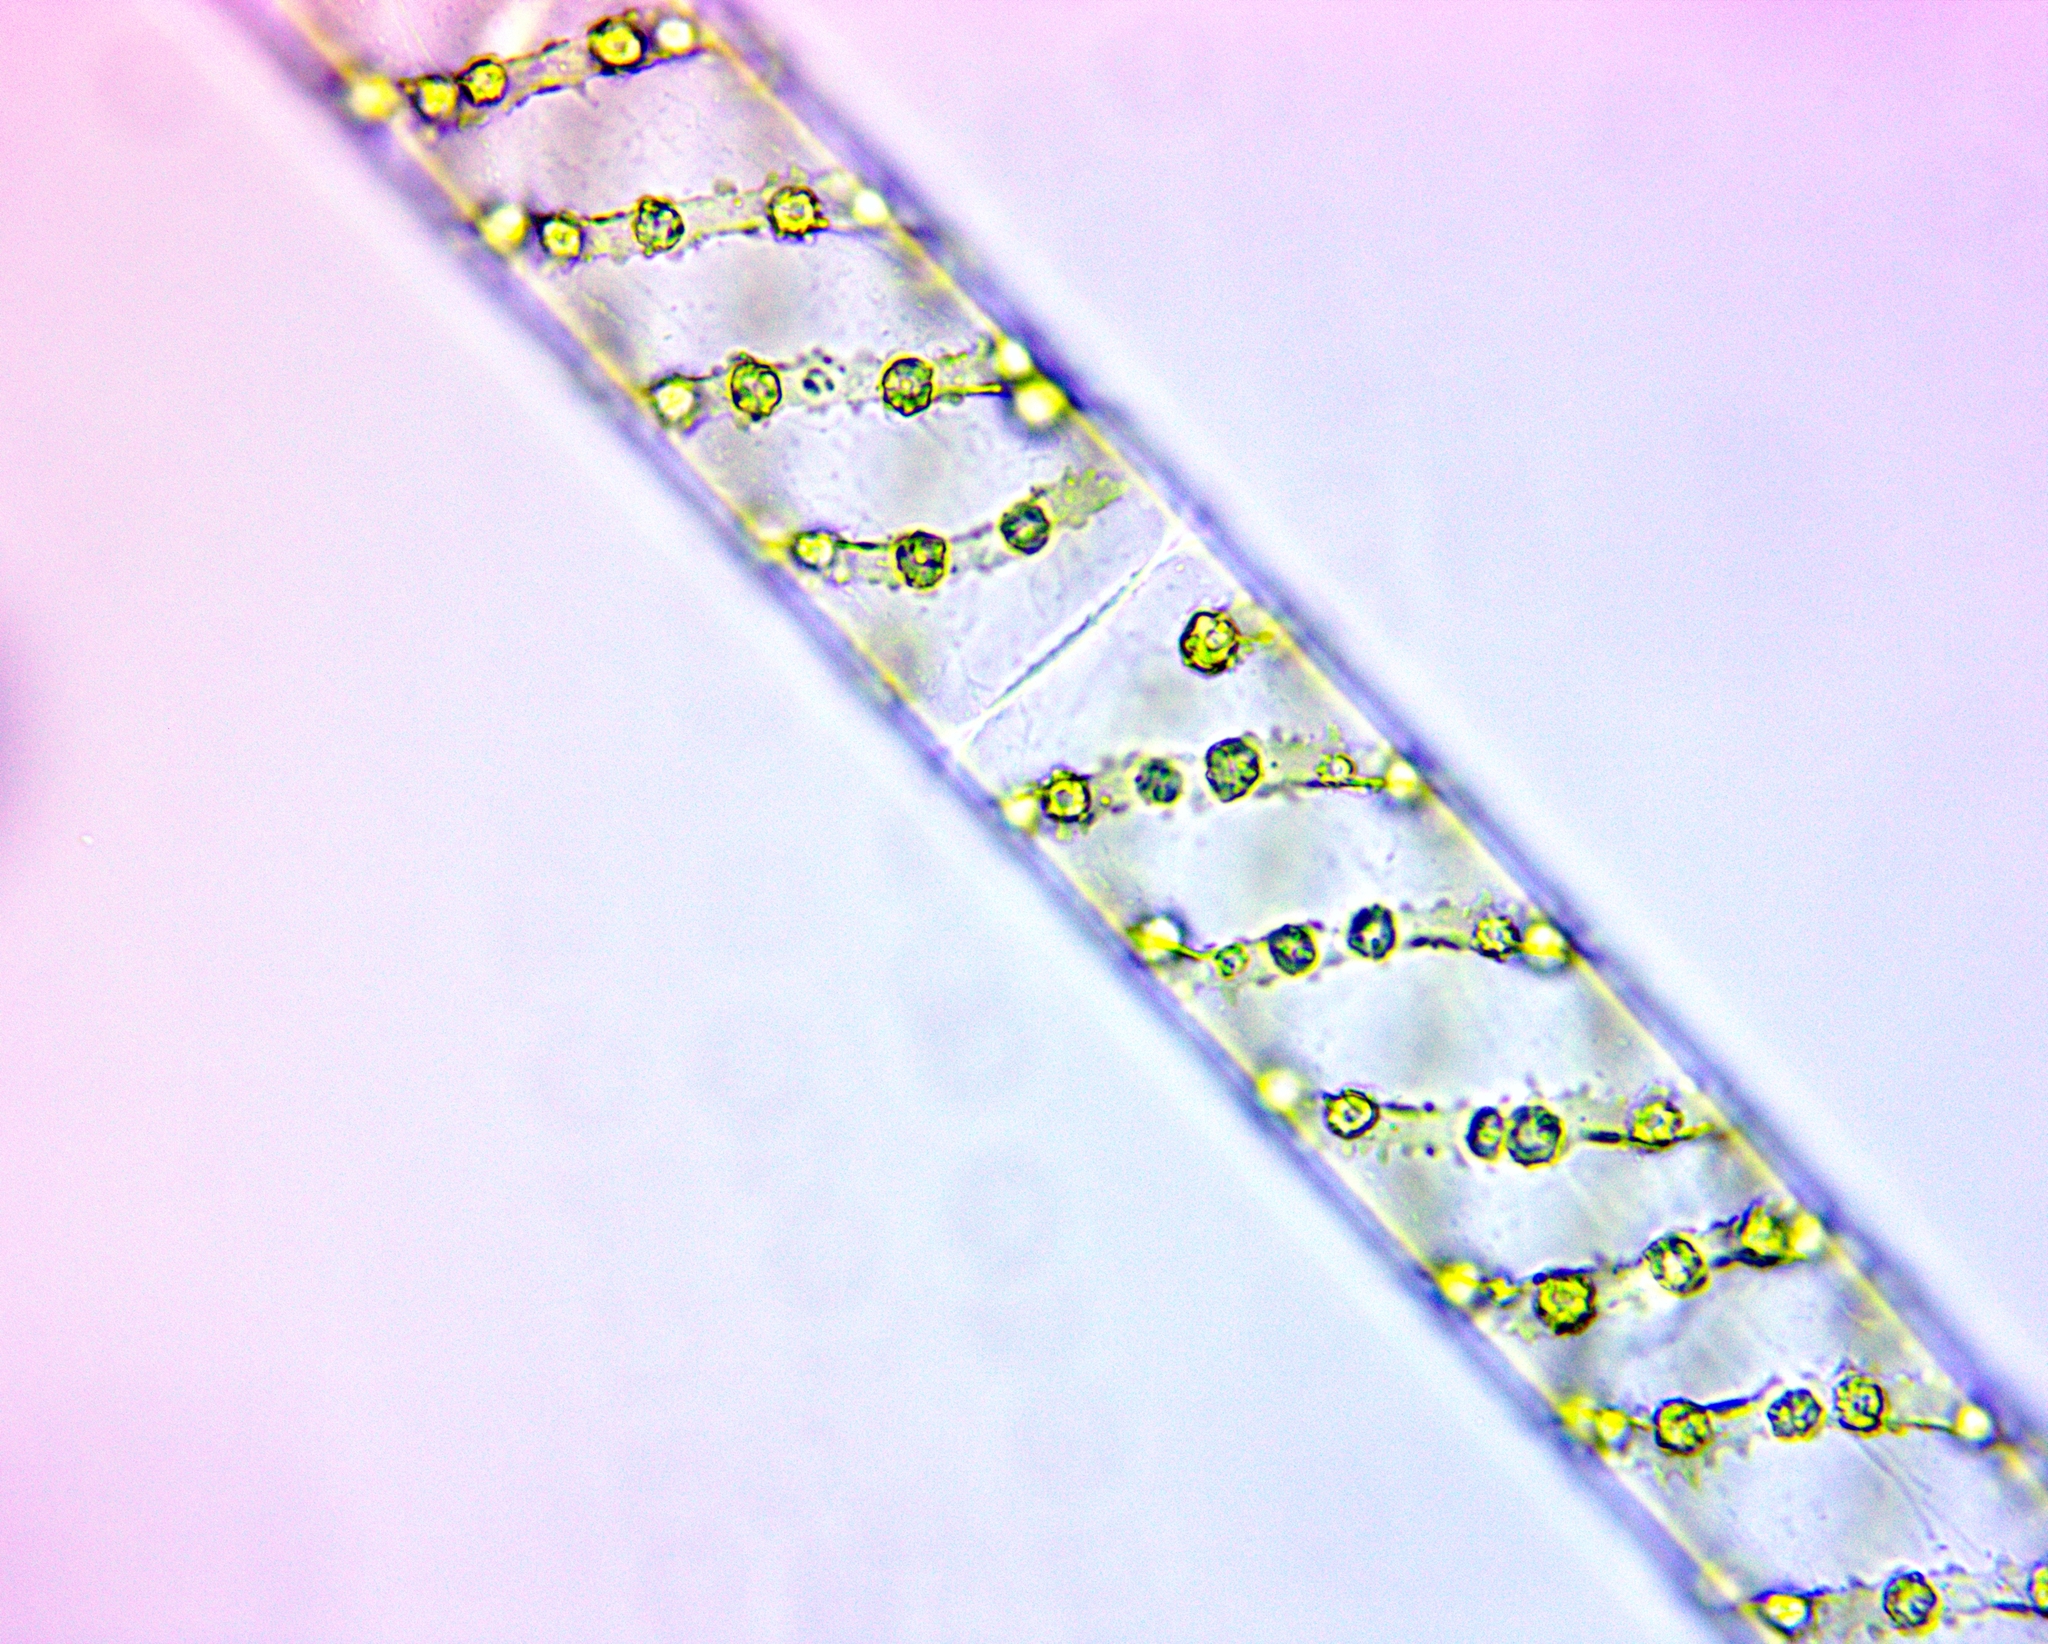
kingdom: Plantae
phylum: Charophyta
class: Zygnematophyceae
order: Zygnematales
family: Zygnemataceae
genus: Spirogyra
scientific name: Spirogyra
